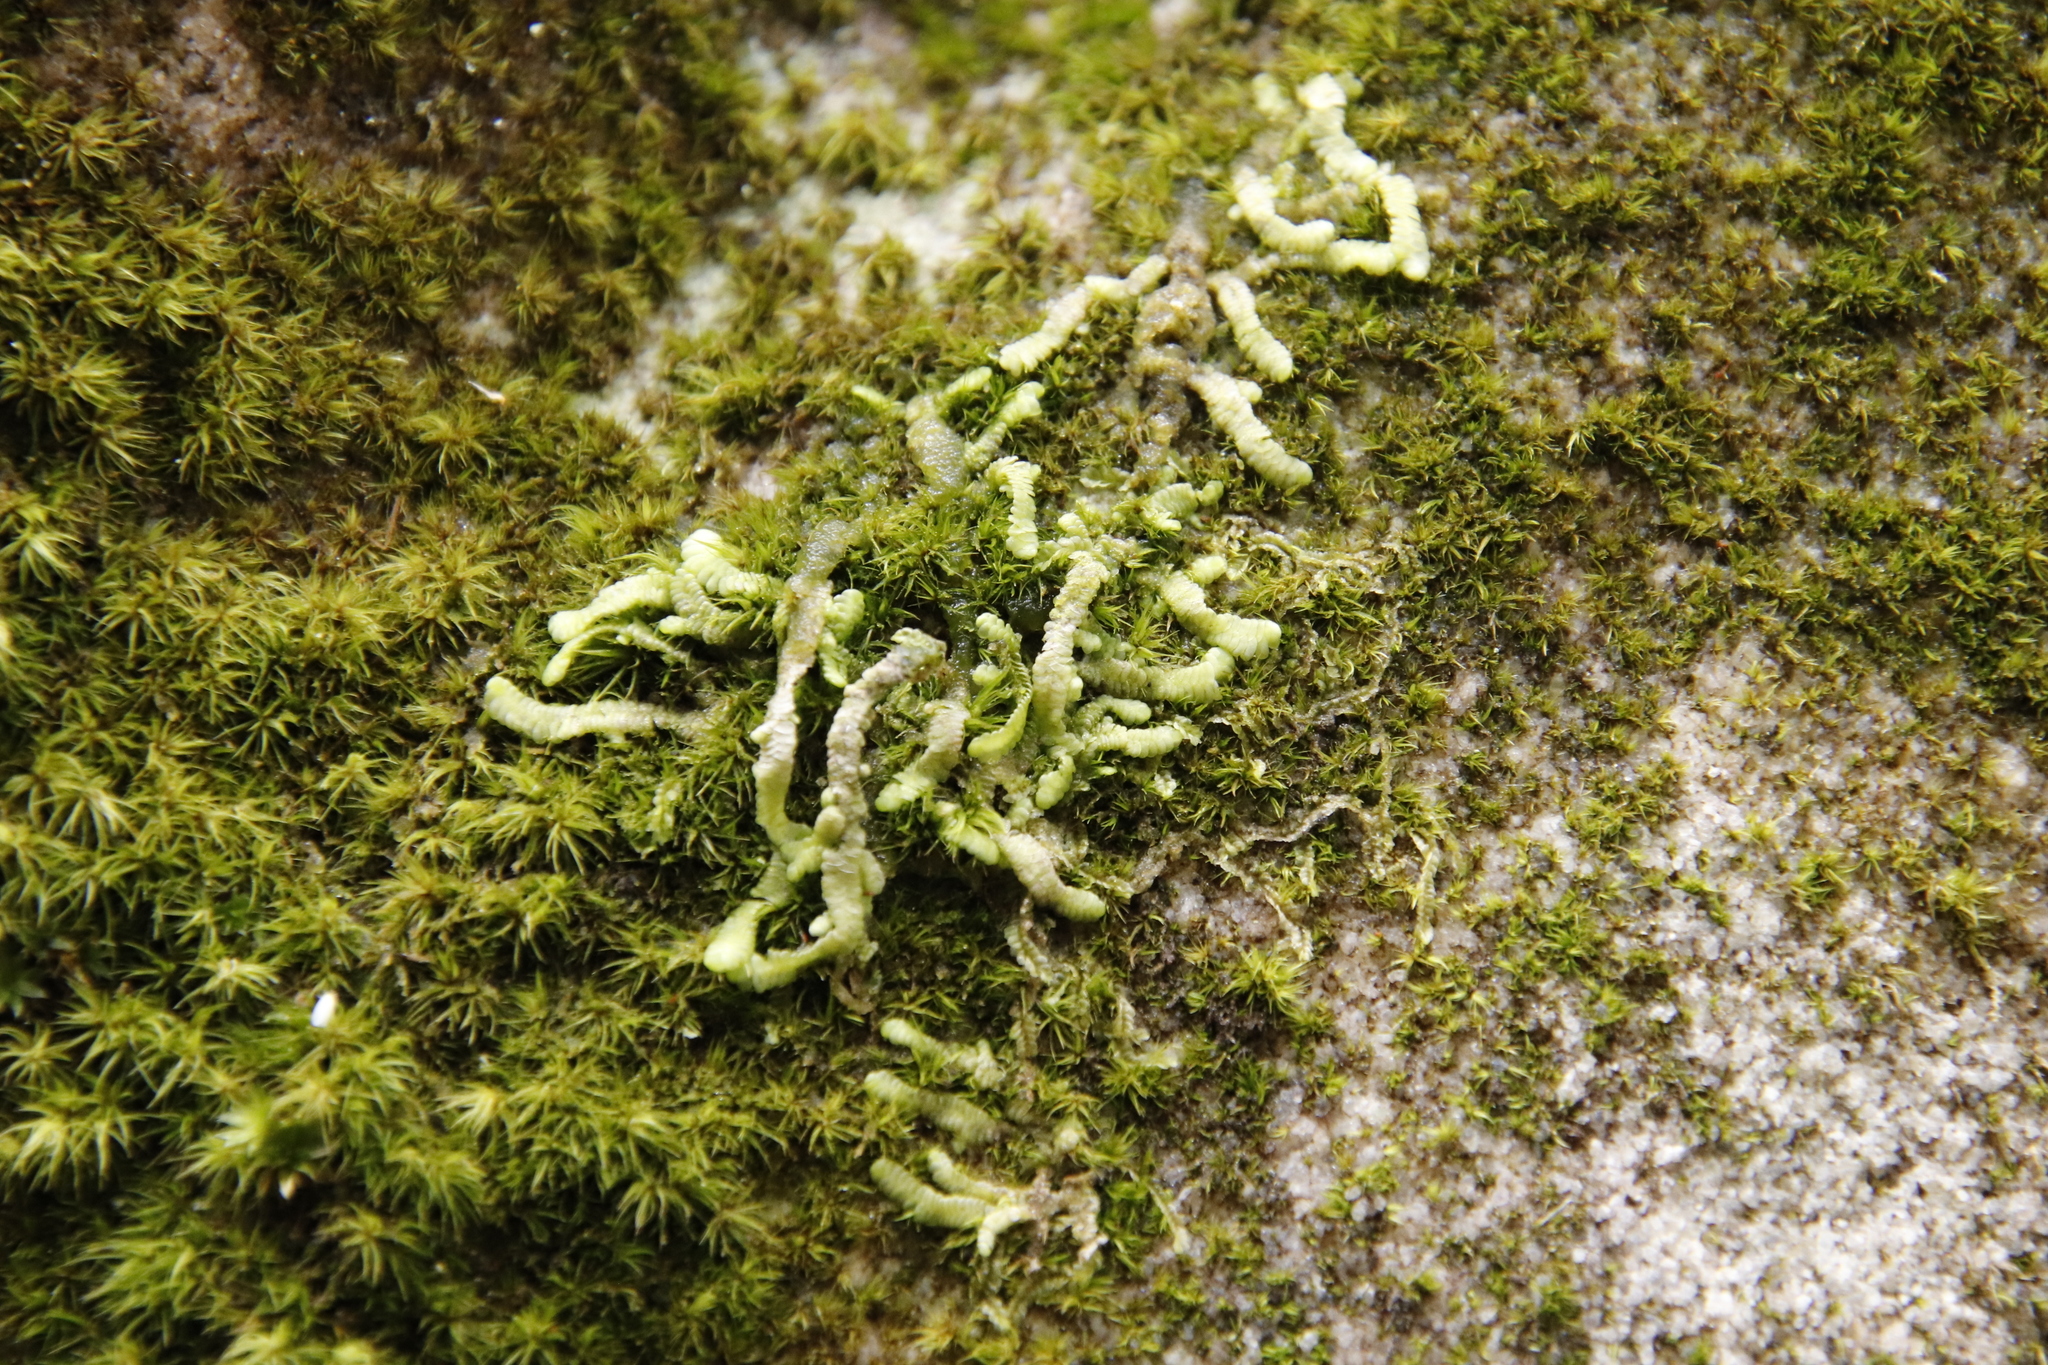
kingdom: Plantae
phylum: Bryophyta
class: Bryopsida
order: Dicranales
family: Dicranaceae
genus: Leucoloma
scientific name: Leucoloma sprengelianum
